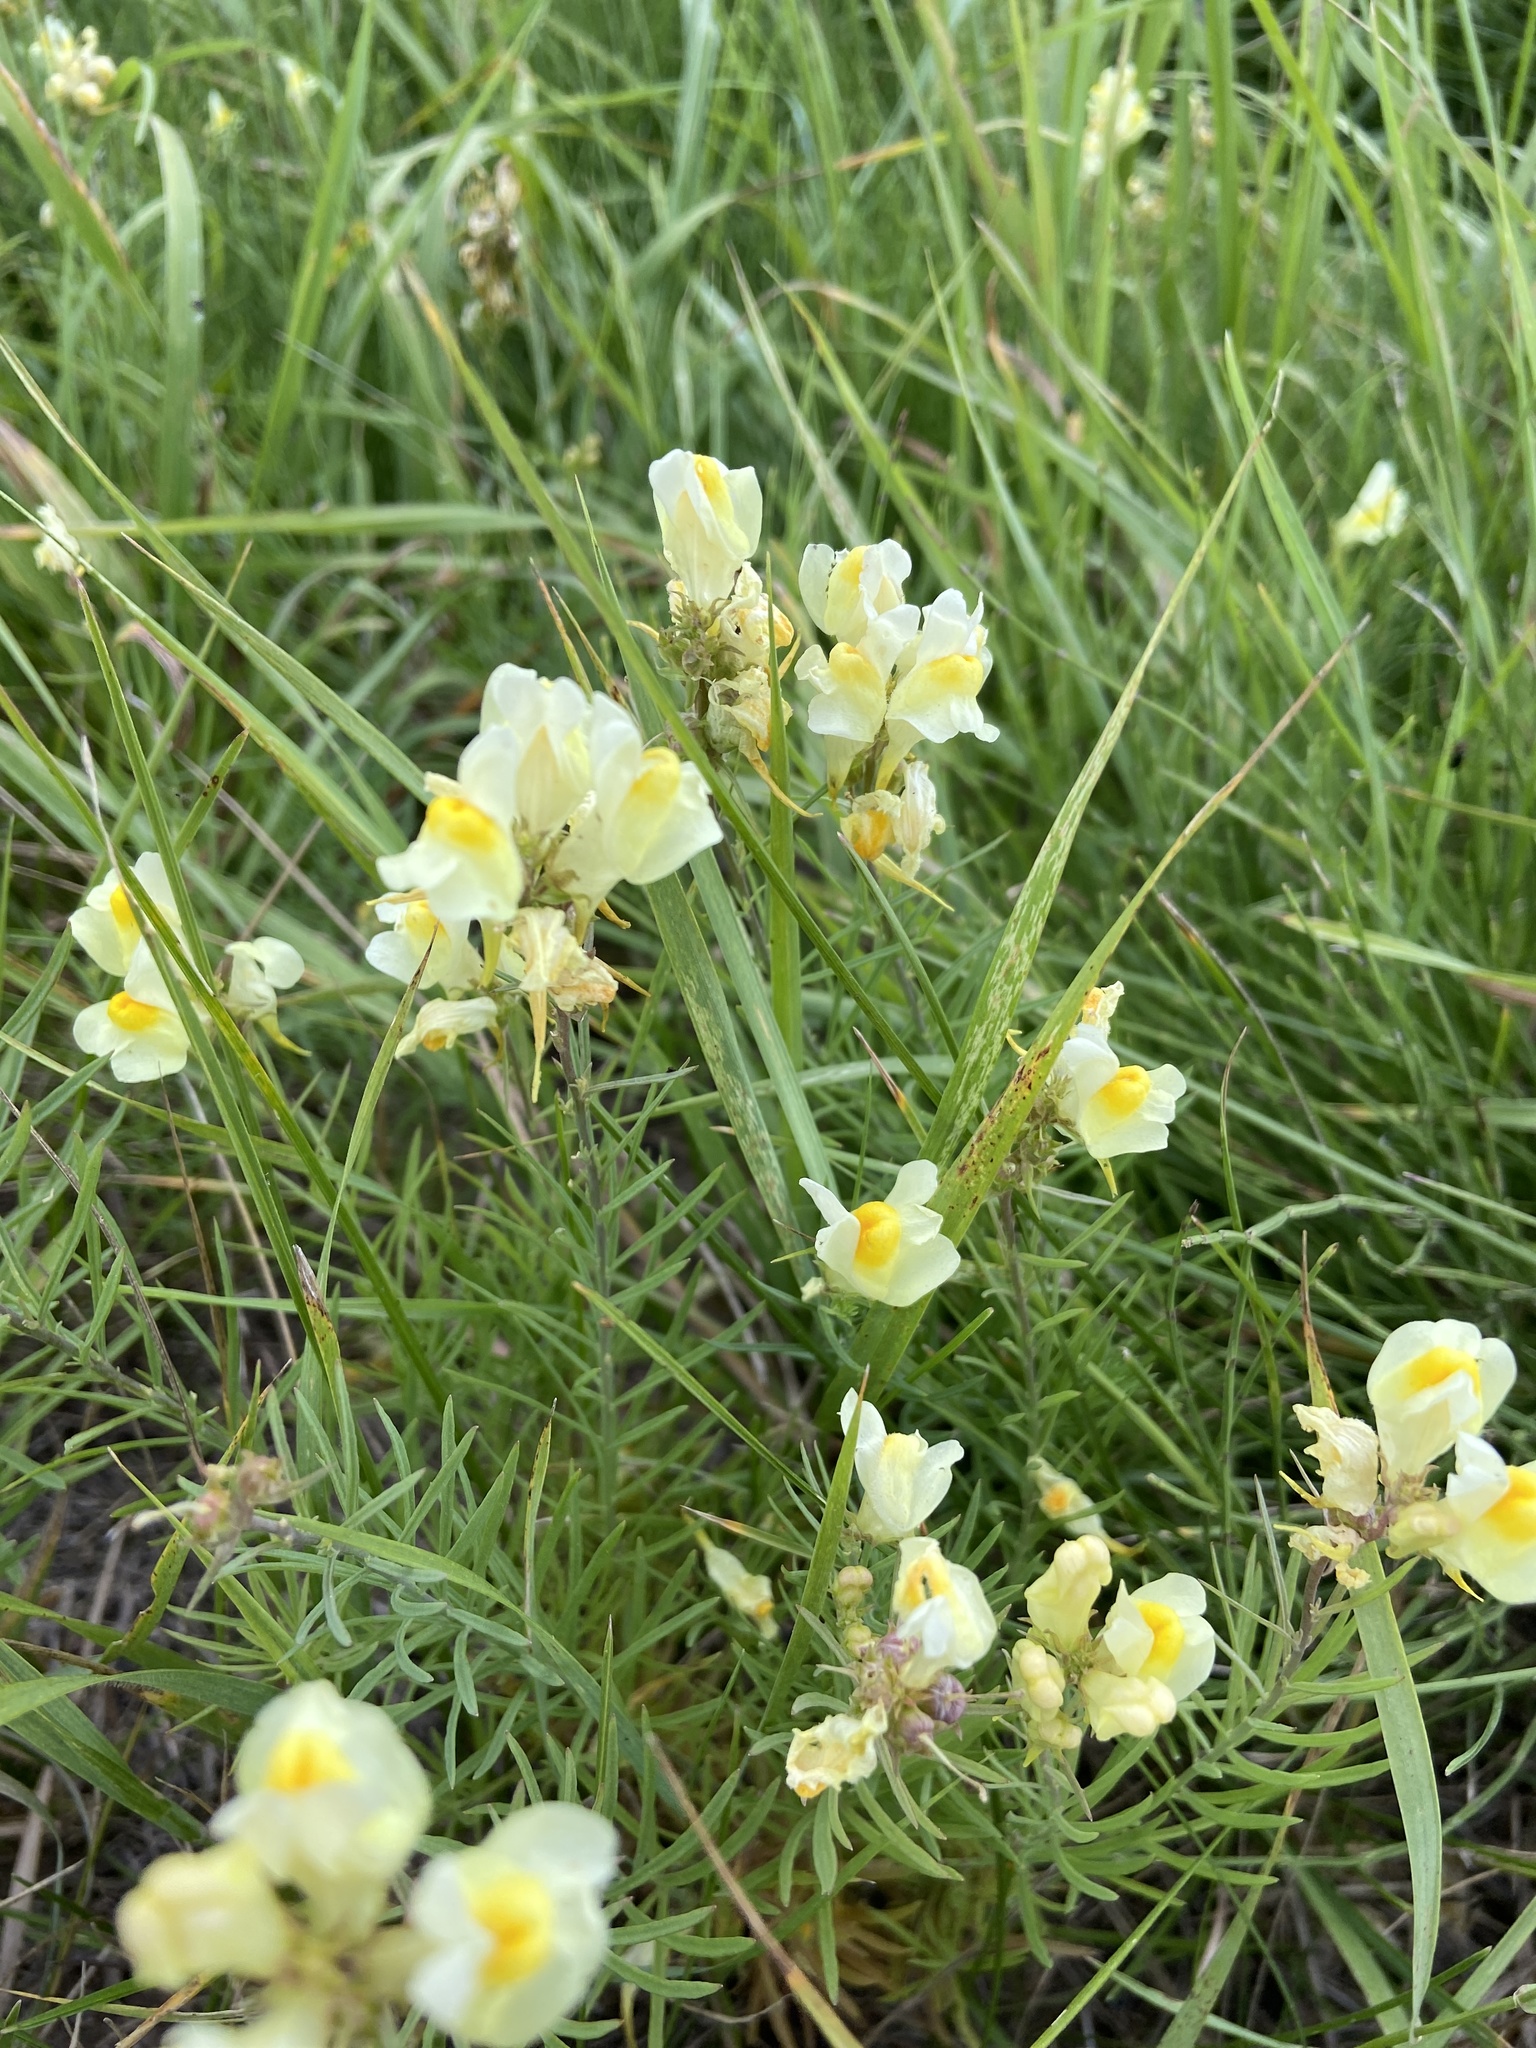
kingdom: Plantae
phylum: Tracheophyta
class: Magnoliopsida
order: Lamiales
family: Plantaginaceae
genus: Linaria
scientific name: Linaria vulgaris
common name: Butter and eggs
